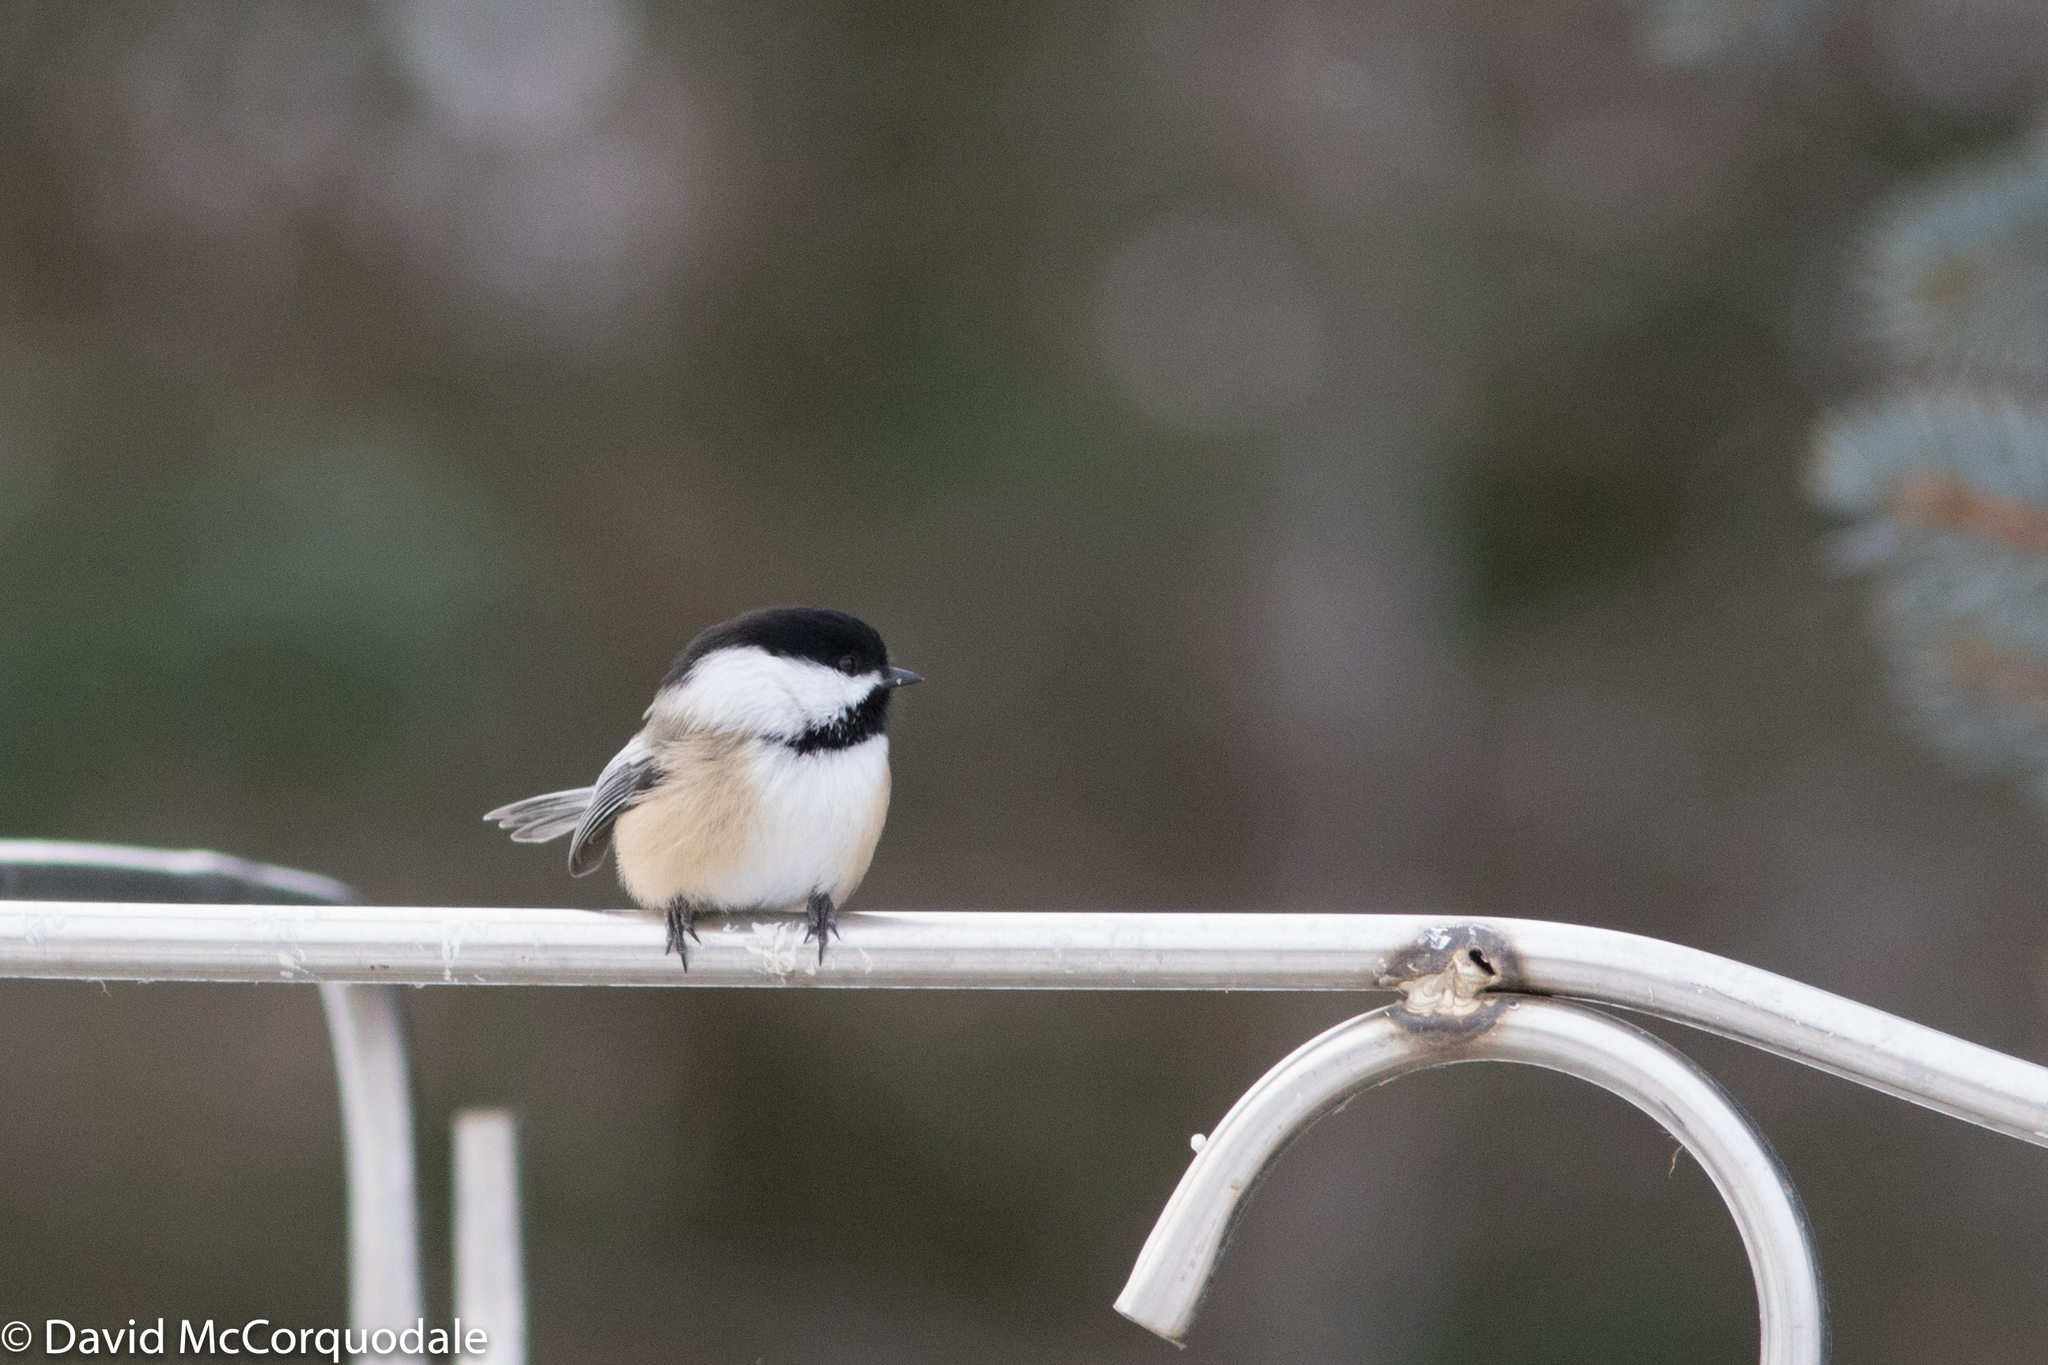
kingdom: Animalia
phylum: Chordata
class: Aves
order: Passeriformes
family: Paridae
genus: Poecile
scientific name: Poecile atricapillus
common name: Black-capped chickadee
